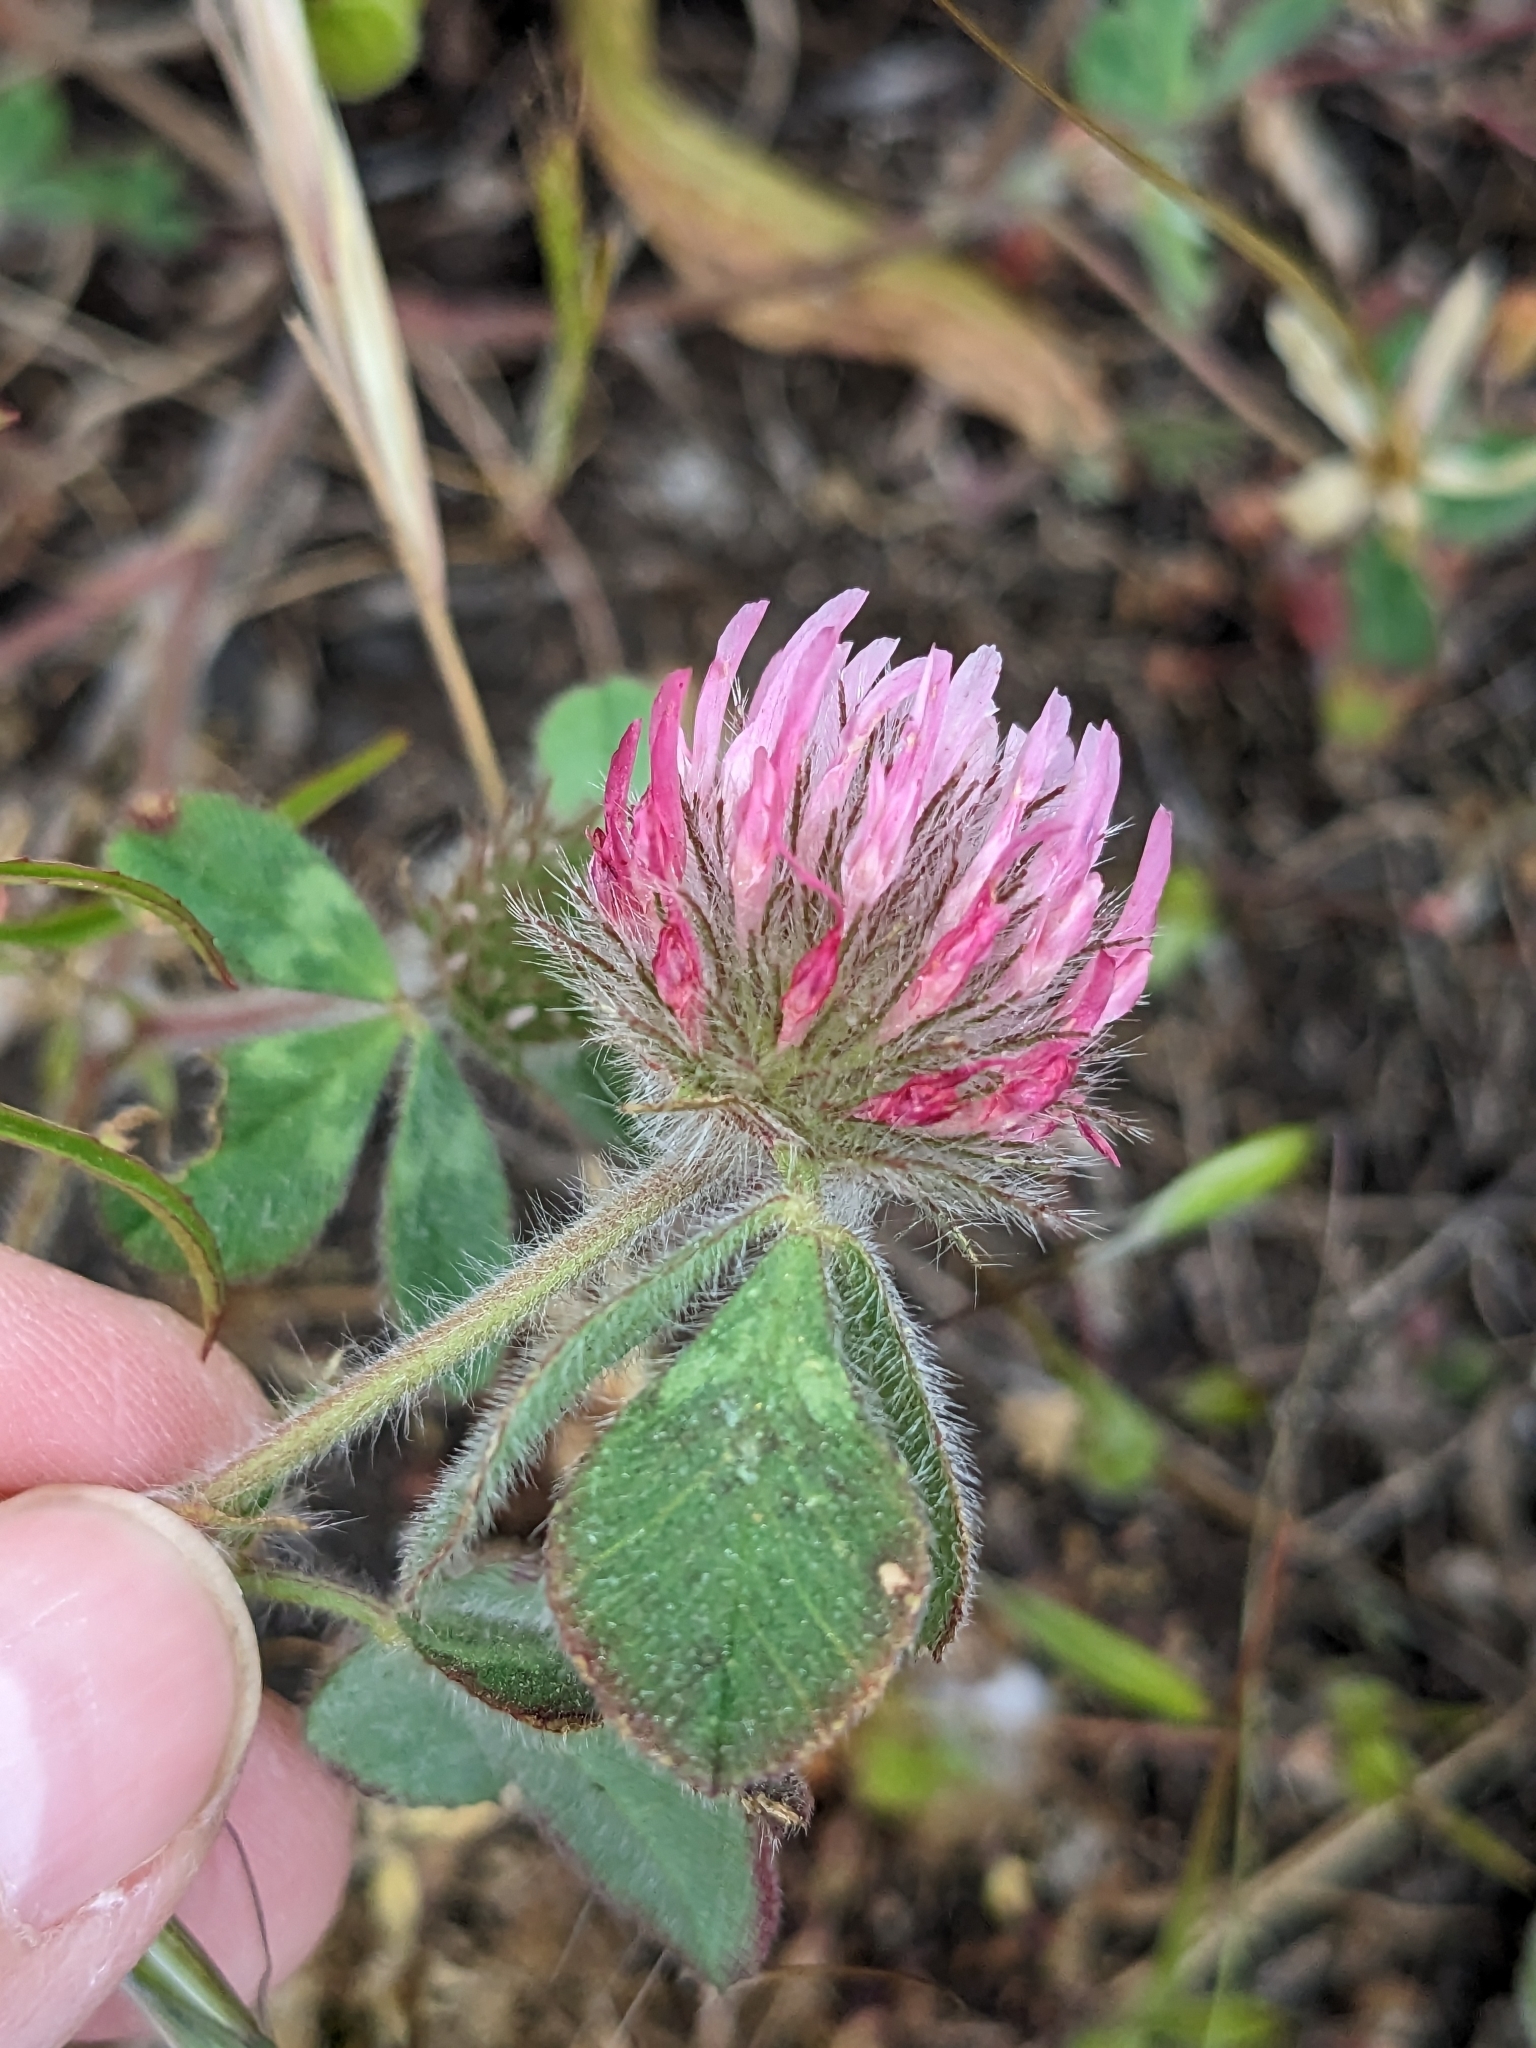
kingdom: Plantae
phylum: Tracheophyta
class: Magnoliopsida
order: Fabales
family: Fabaceae
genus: Trifolium
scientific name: Trifolium hirtum
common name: Rose clover
